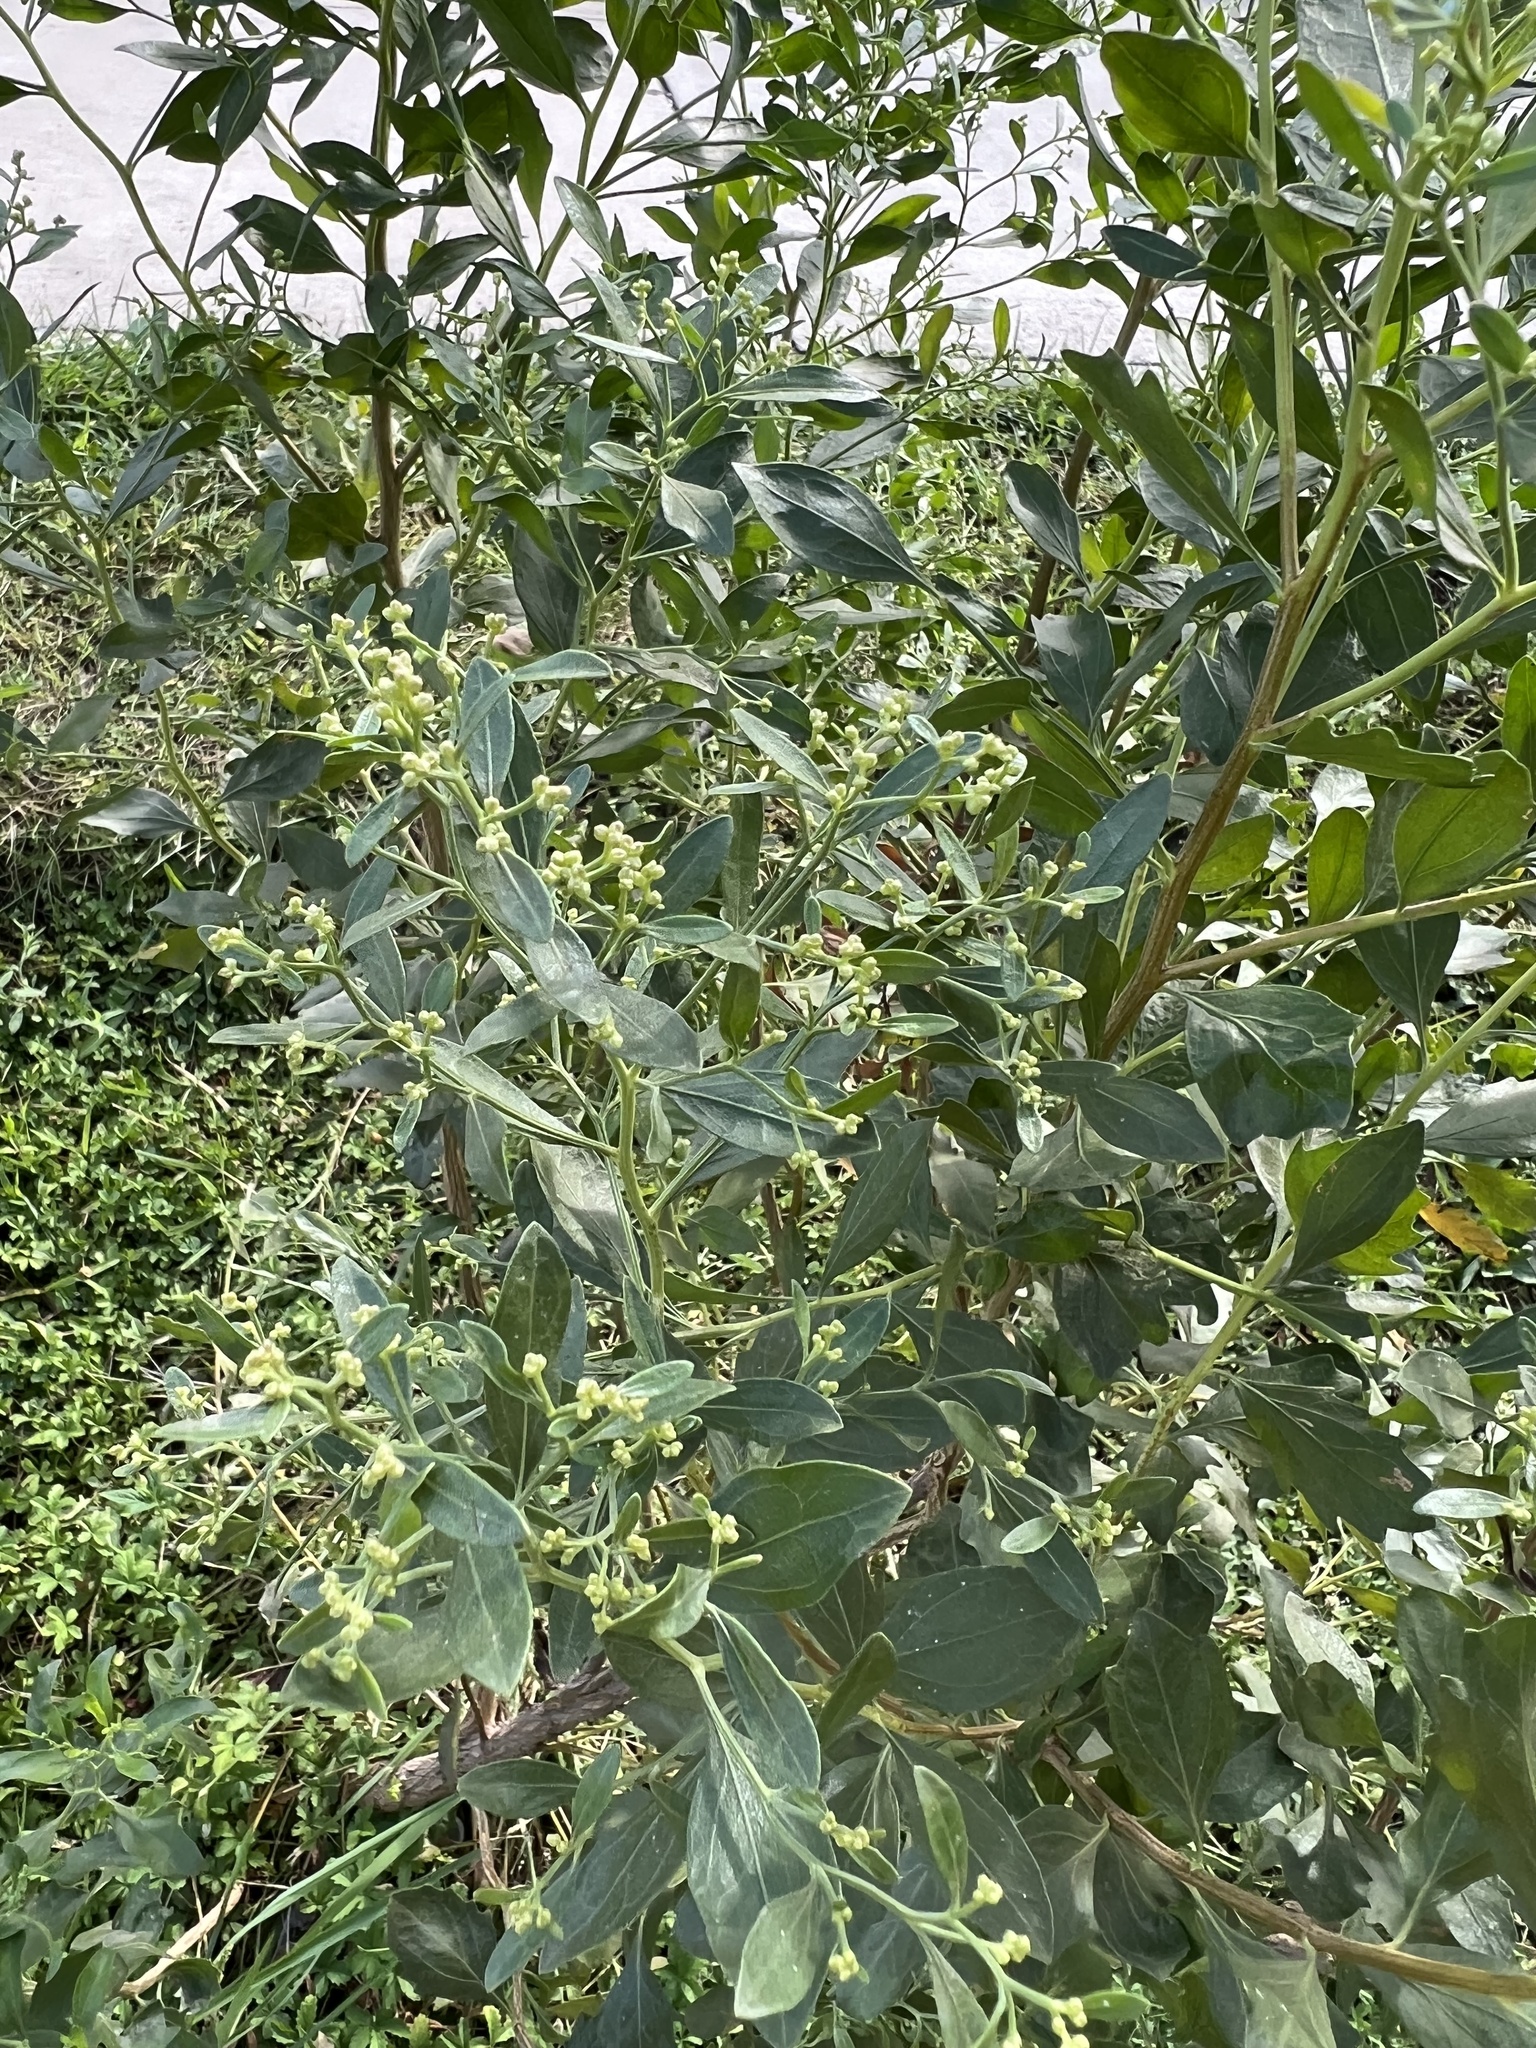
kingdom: Plantae
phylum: Tracheophyta
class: Magnoliopsida
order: Asterales
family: Asteraceae
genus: Baccharis
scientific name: Baccharis halimifolia
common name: Eastern baccharis
